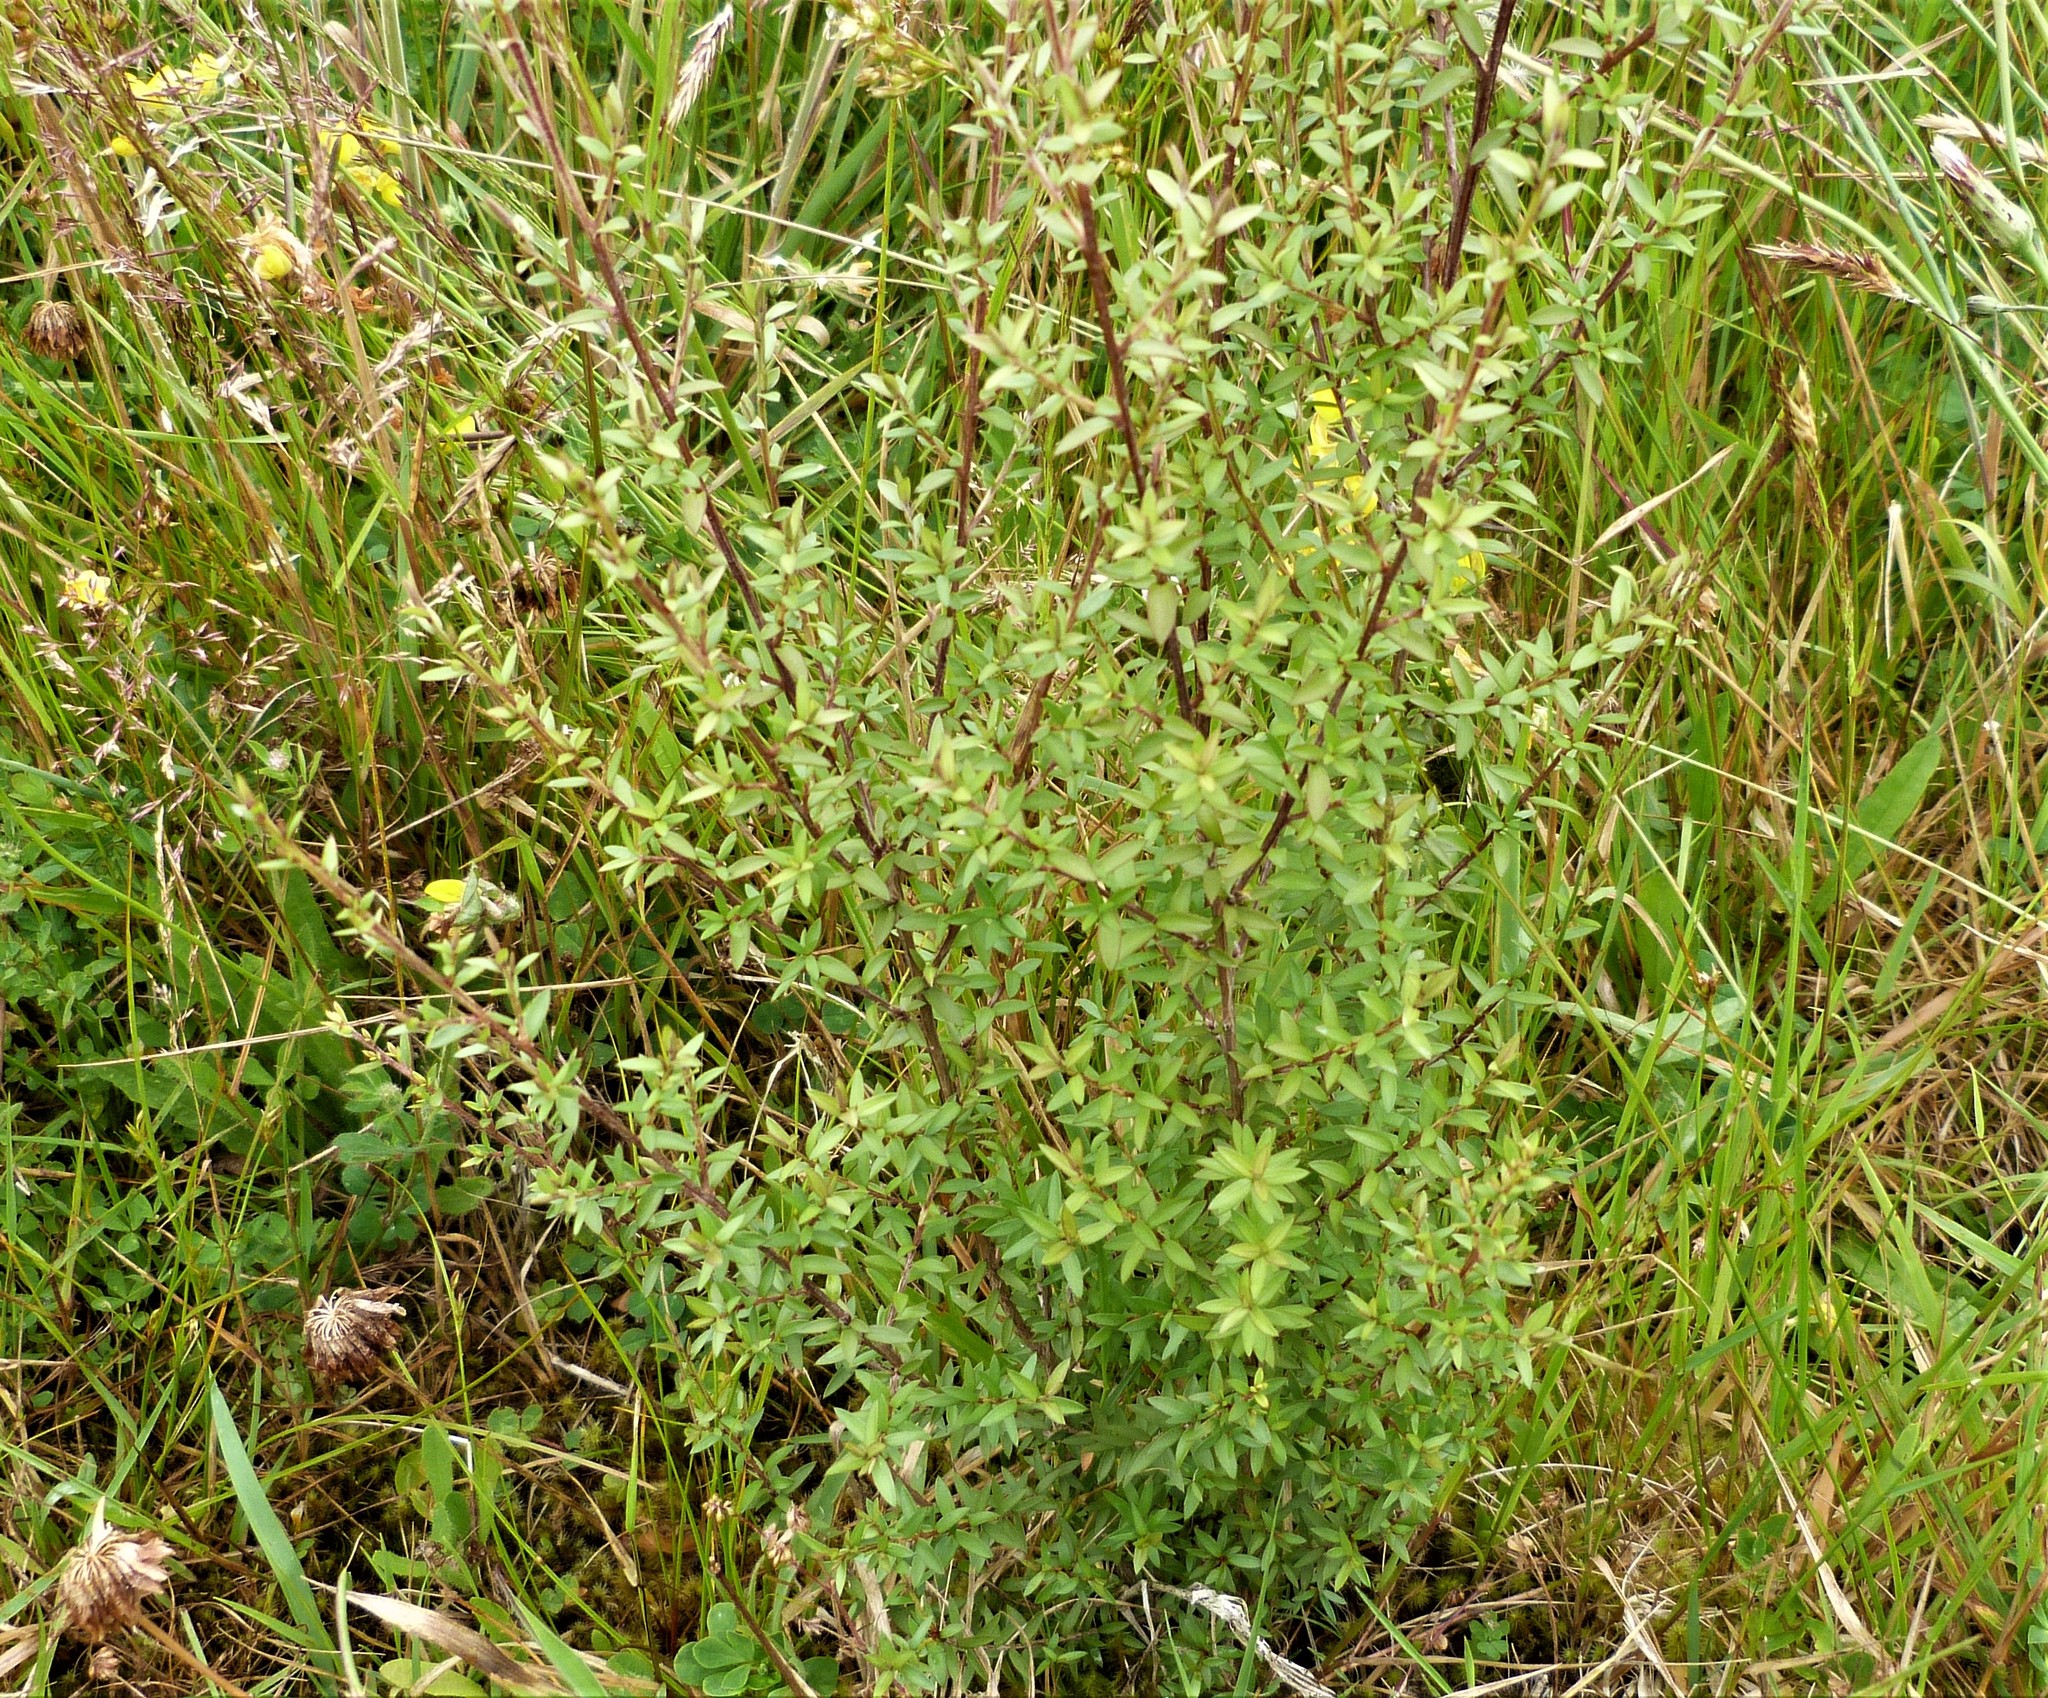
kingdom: Plantae
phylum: Tracheophyta
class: Magnoliopsida
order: Myrtales
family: Myrtaceae
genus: Leptospermum
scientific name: Leptospermum scoparium
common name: Broom tea-tree
